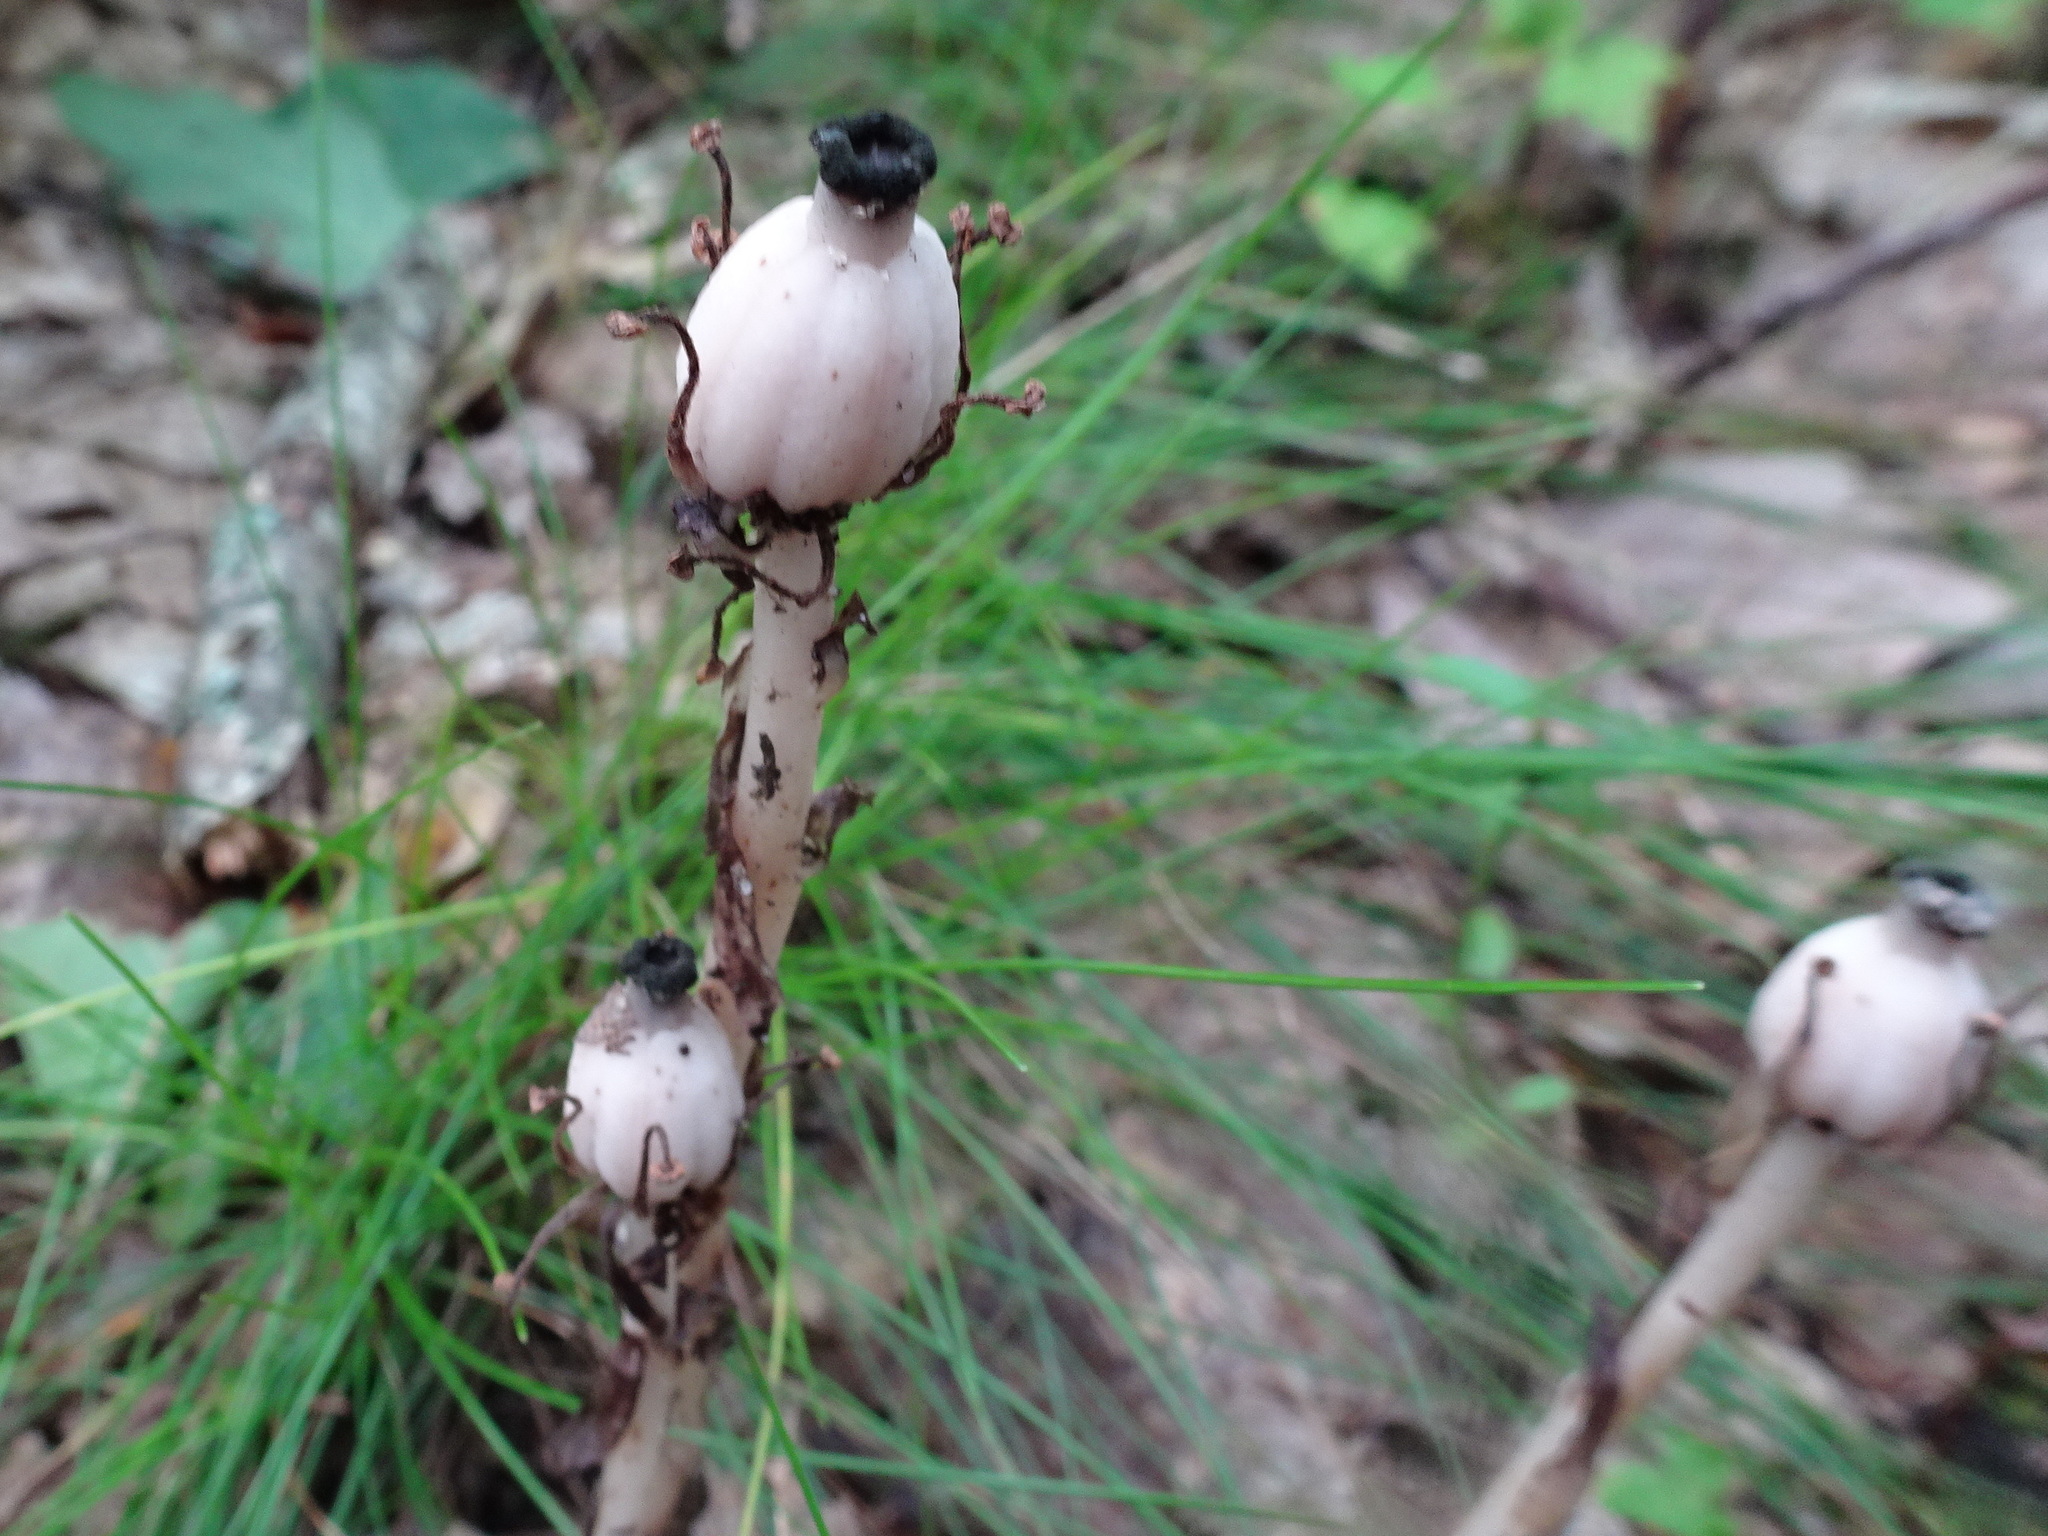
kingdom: Plantae
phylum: Tracheophyta
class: Magnoliopsida
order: Ericales
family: Ericaceae
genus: Monotropa
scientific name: Monotropa uniflora
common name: Convulsion root
